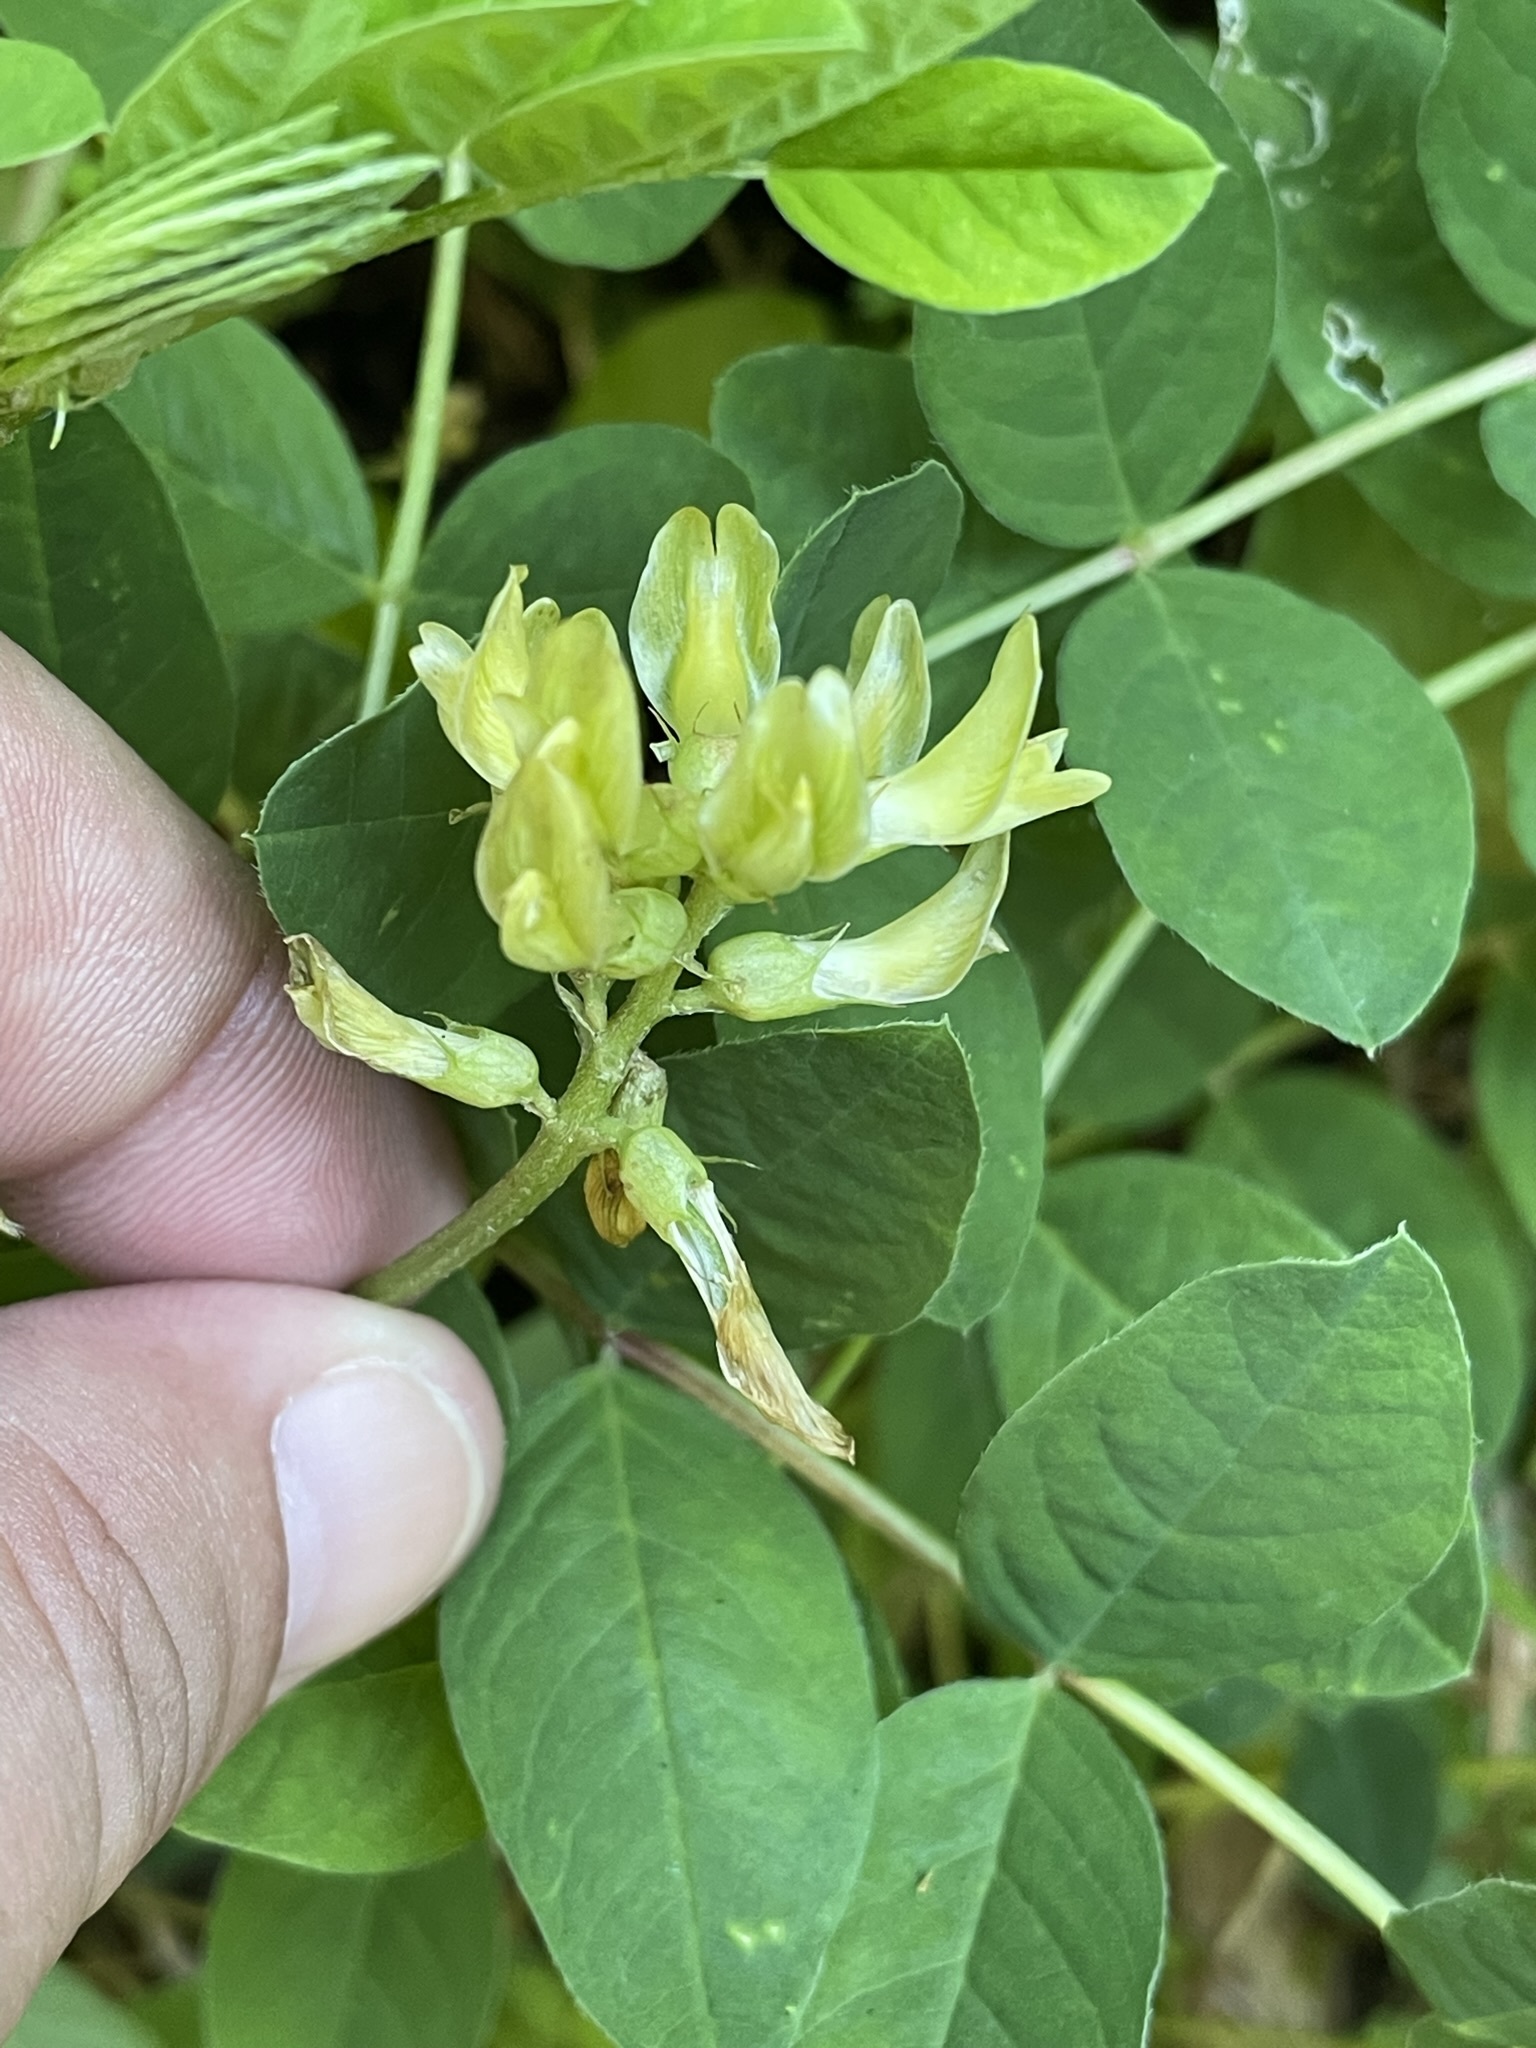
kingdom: Plantae
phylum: Tracheophyta
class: Magnoliopsida
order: Fabales
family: Fabaceae
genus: Astragalus
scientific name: Astragalus glycyphyllos
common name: Wild liquorice
